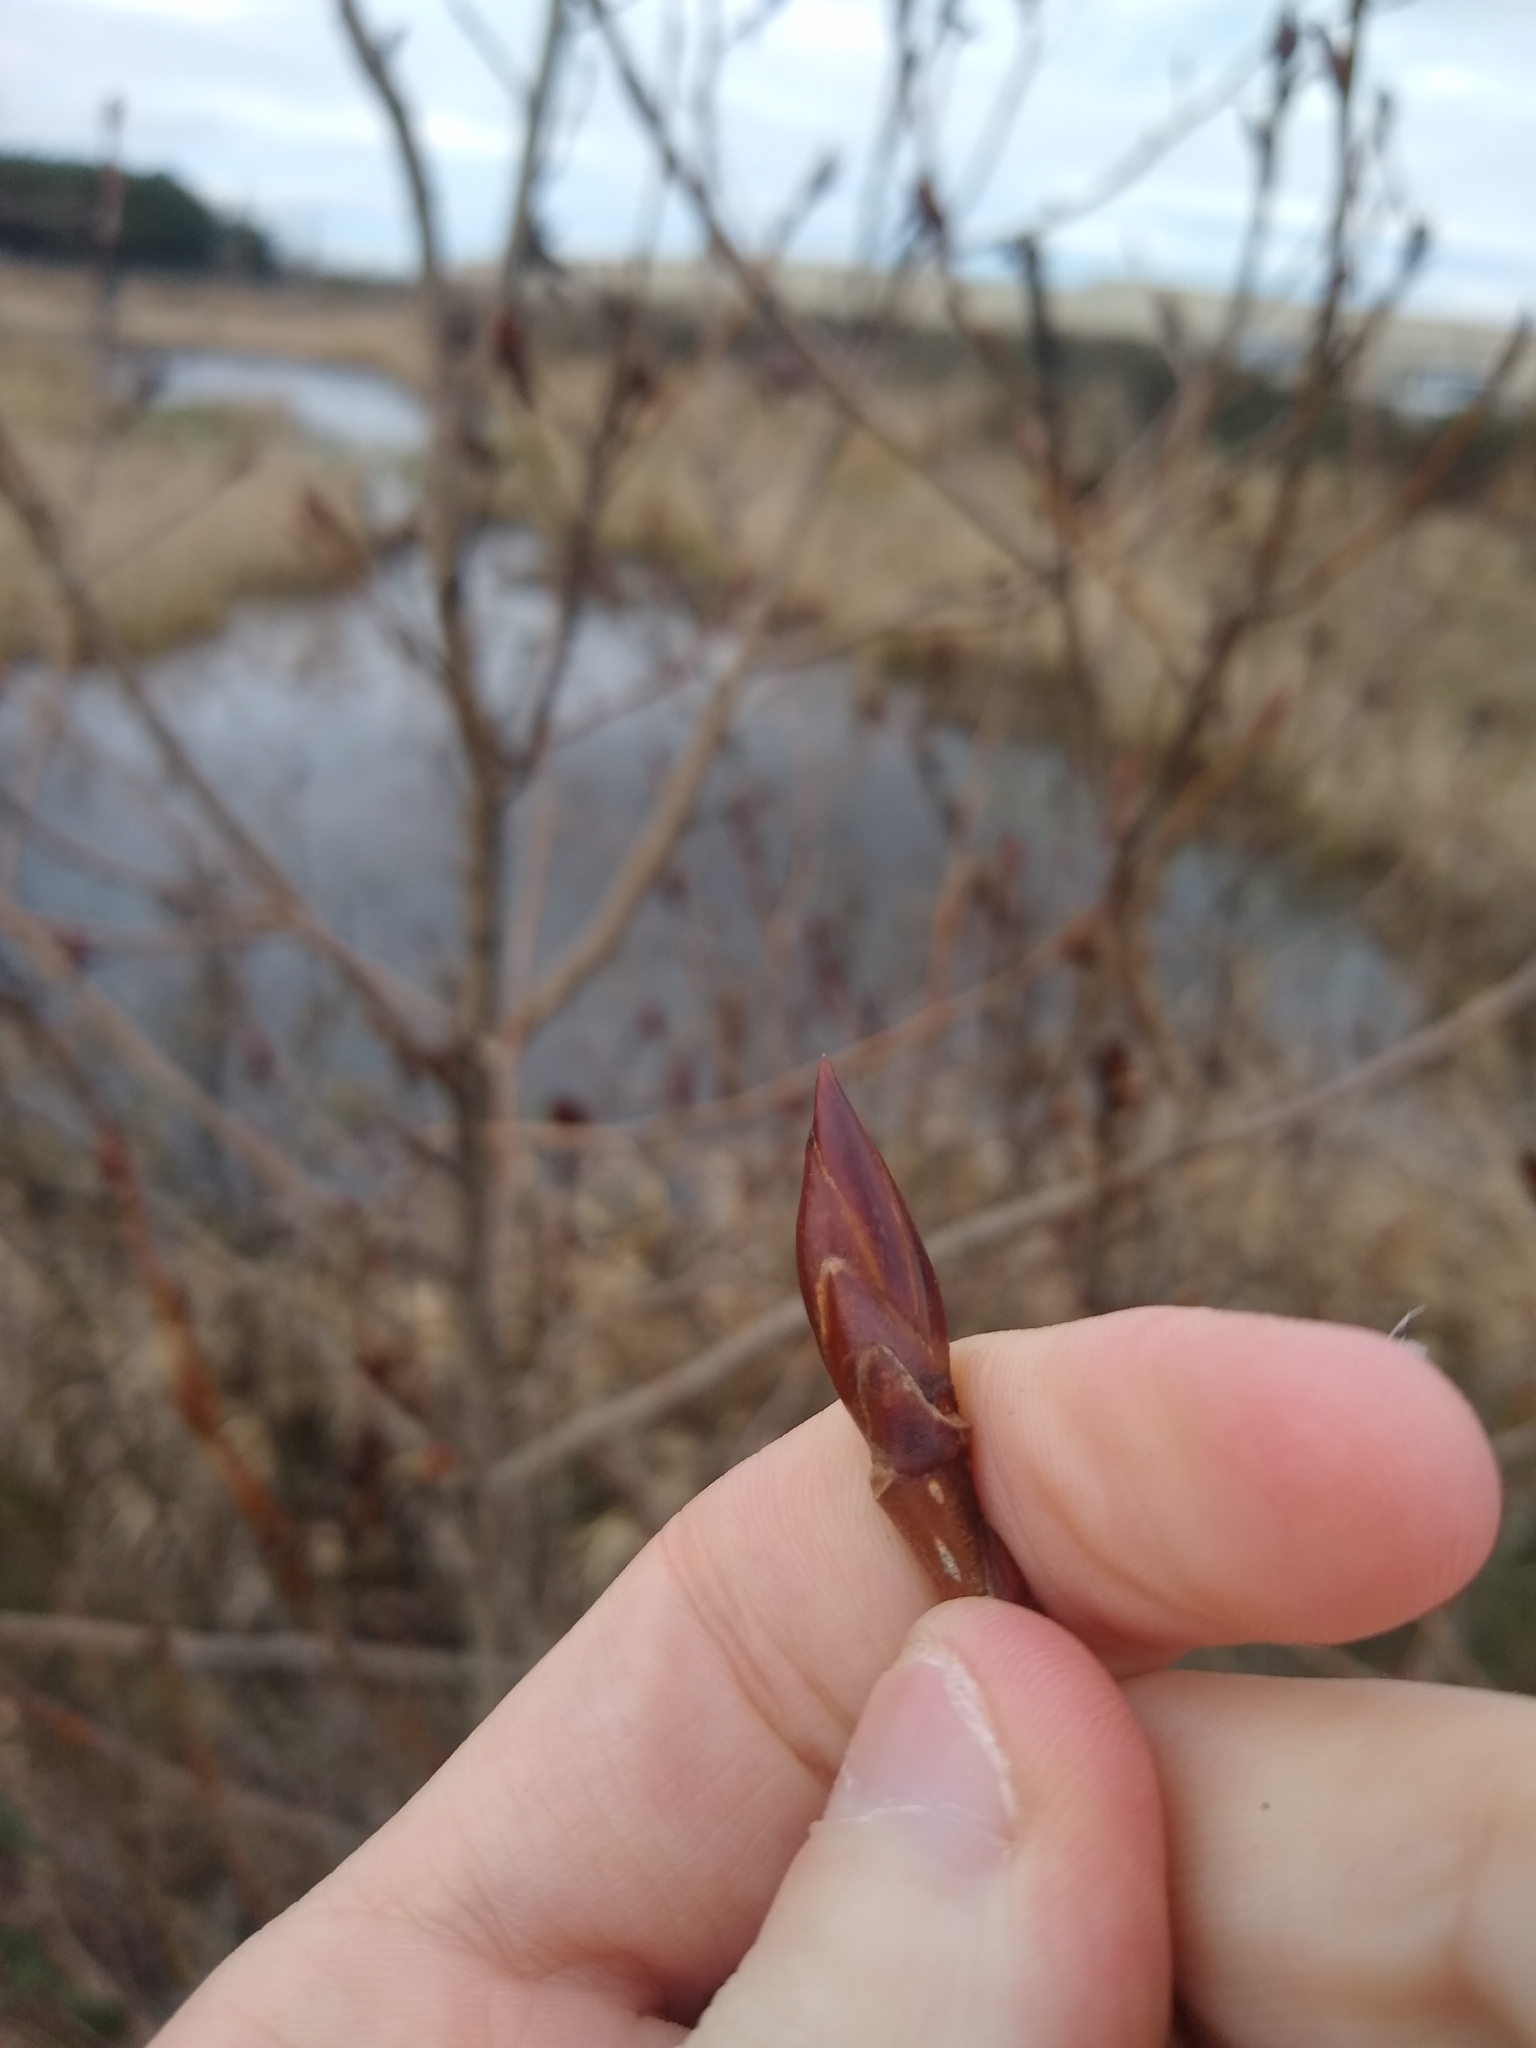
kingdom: Plantae
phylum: Tracheophyta
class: Magnoliopsida
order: Malpighiales
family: Salicaceae
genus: Populus
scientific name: Populus trichocarpa
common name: Black cottonwood
